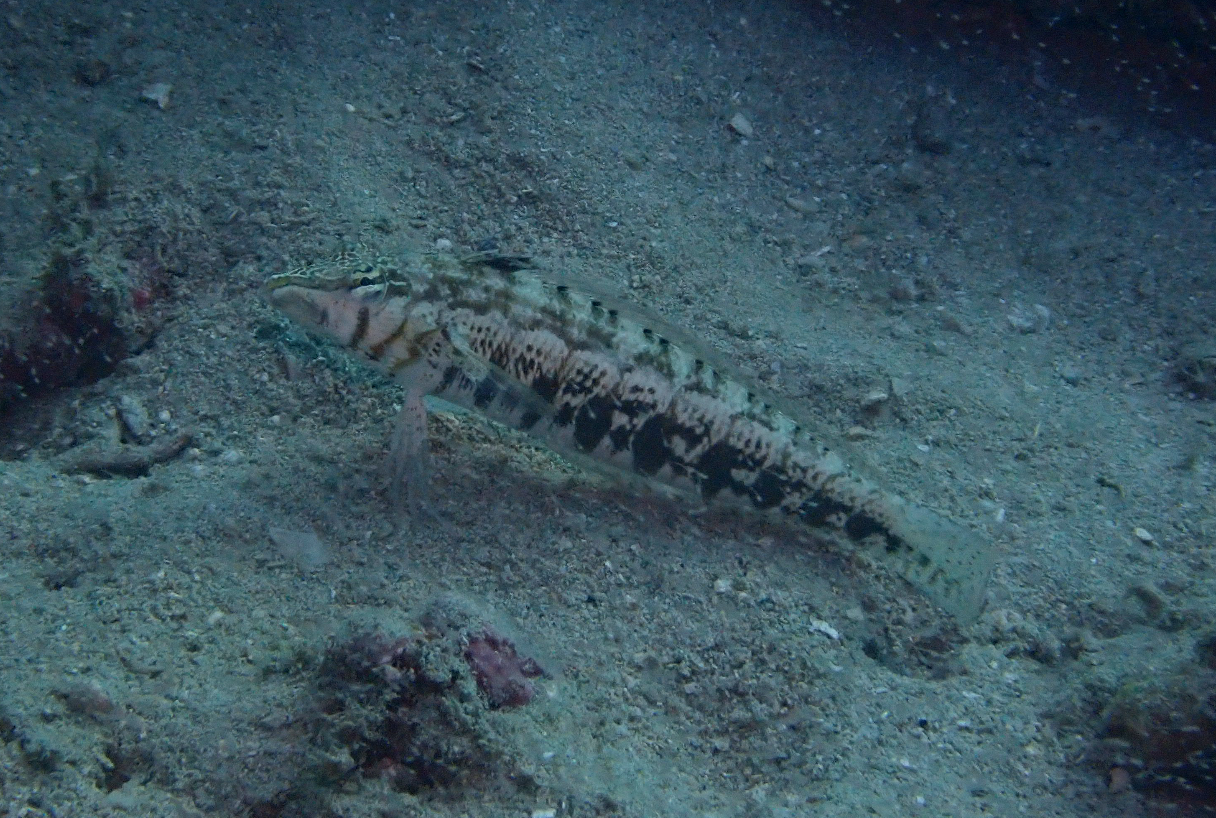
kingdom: Animalia
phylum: Chordata
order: Perciformes
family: Pinguipedidae
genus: Parapercis
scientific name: Parapercis cylindrica
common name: Cylindrical sandperch
